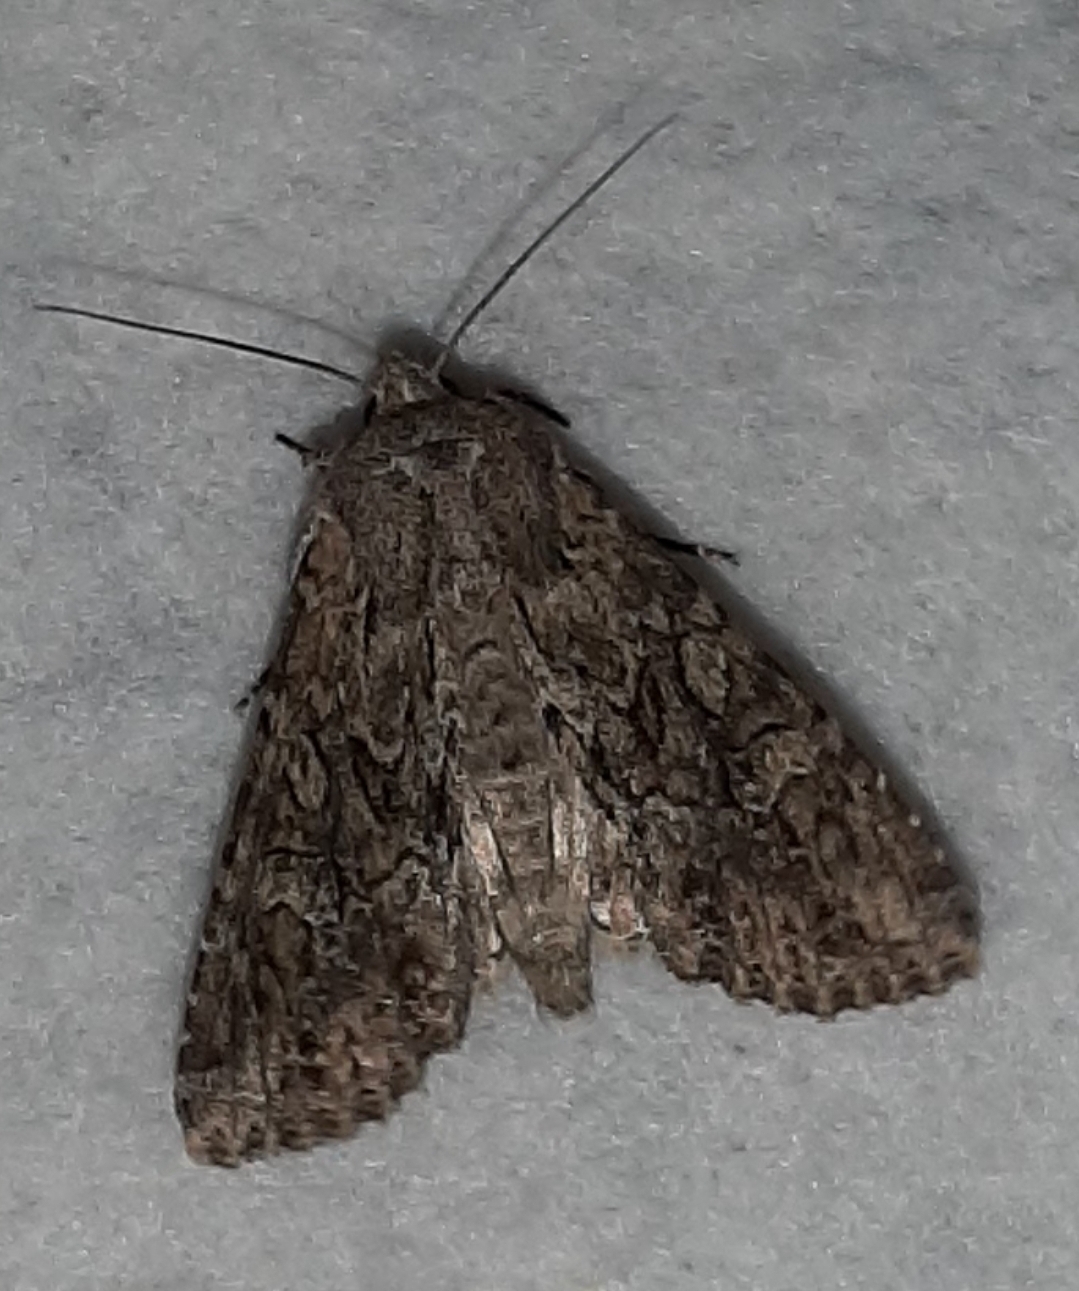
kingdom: Animalia
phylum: Arthropoda
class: Insecta
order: Lepidoptera
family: Noctuidae
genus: Apamea
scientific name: Apamea anceps
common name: Large nutmeg
